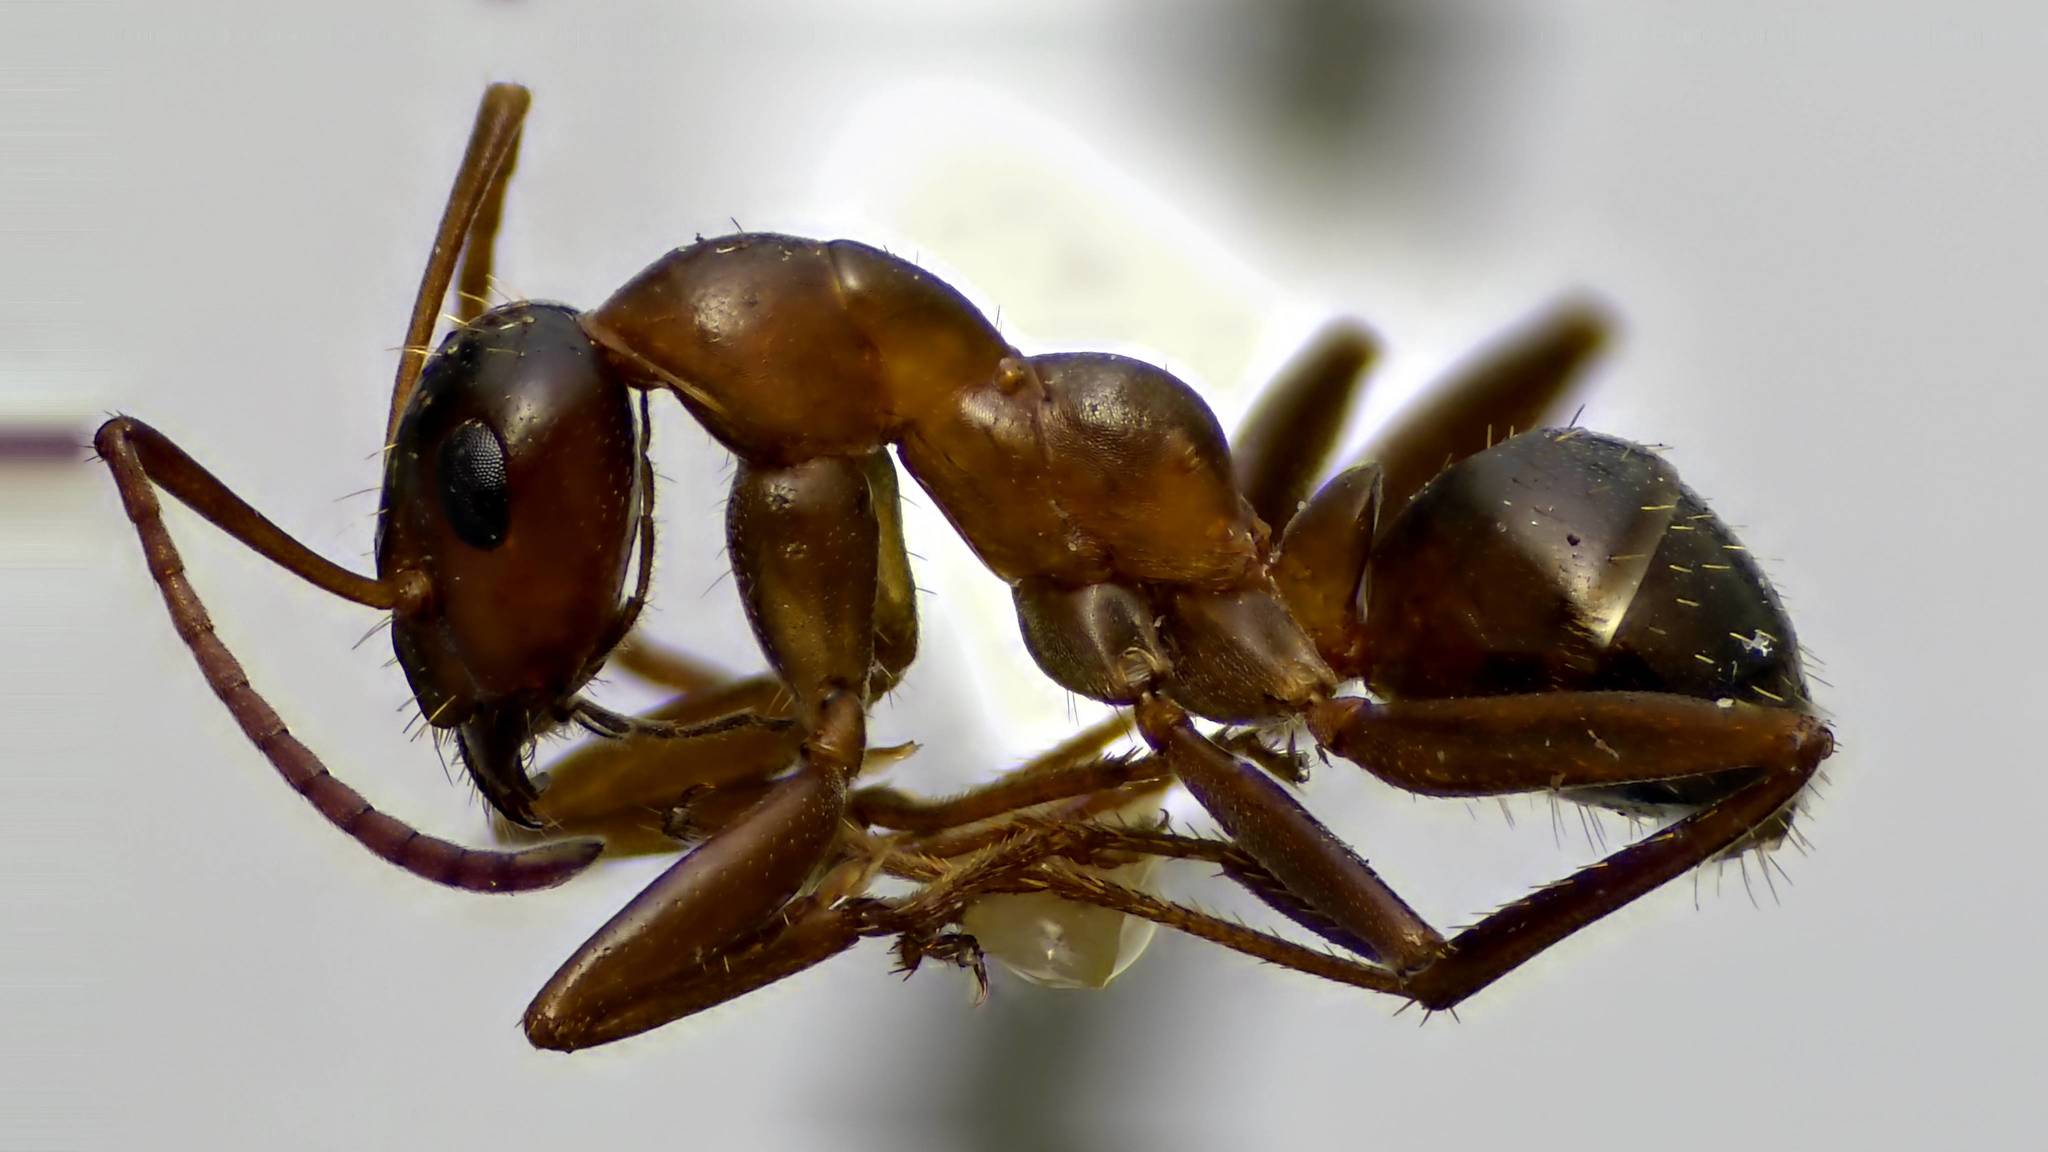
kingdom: Animalia
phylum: Arthropoda
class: Insecta
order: Hymenoptera
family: Formicidae
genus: Formica
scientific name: Formica incerta
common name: Uncertain field ant
